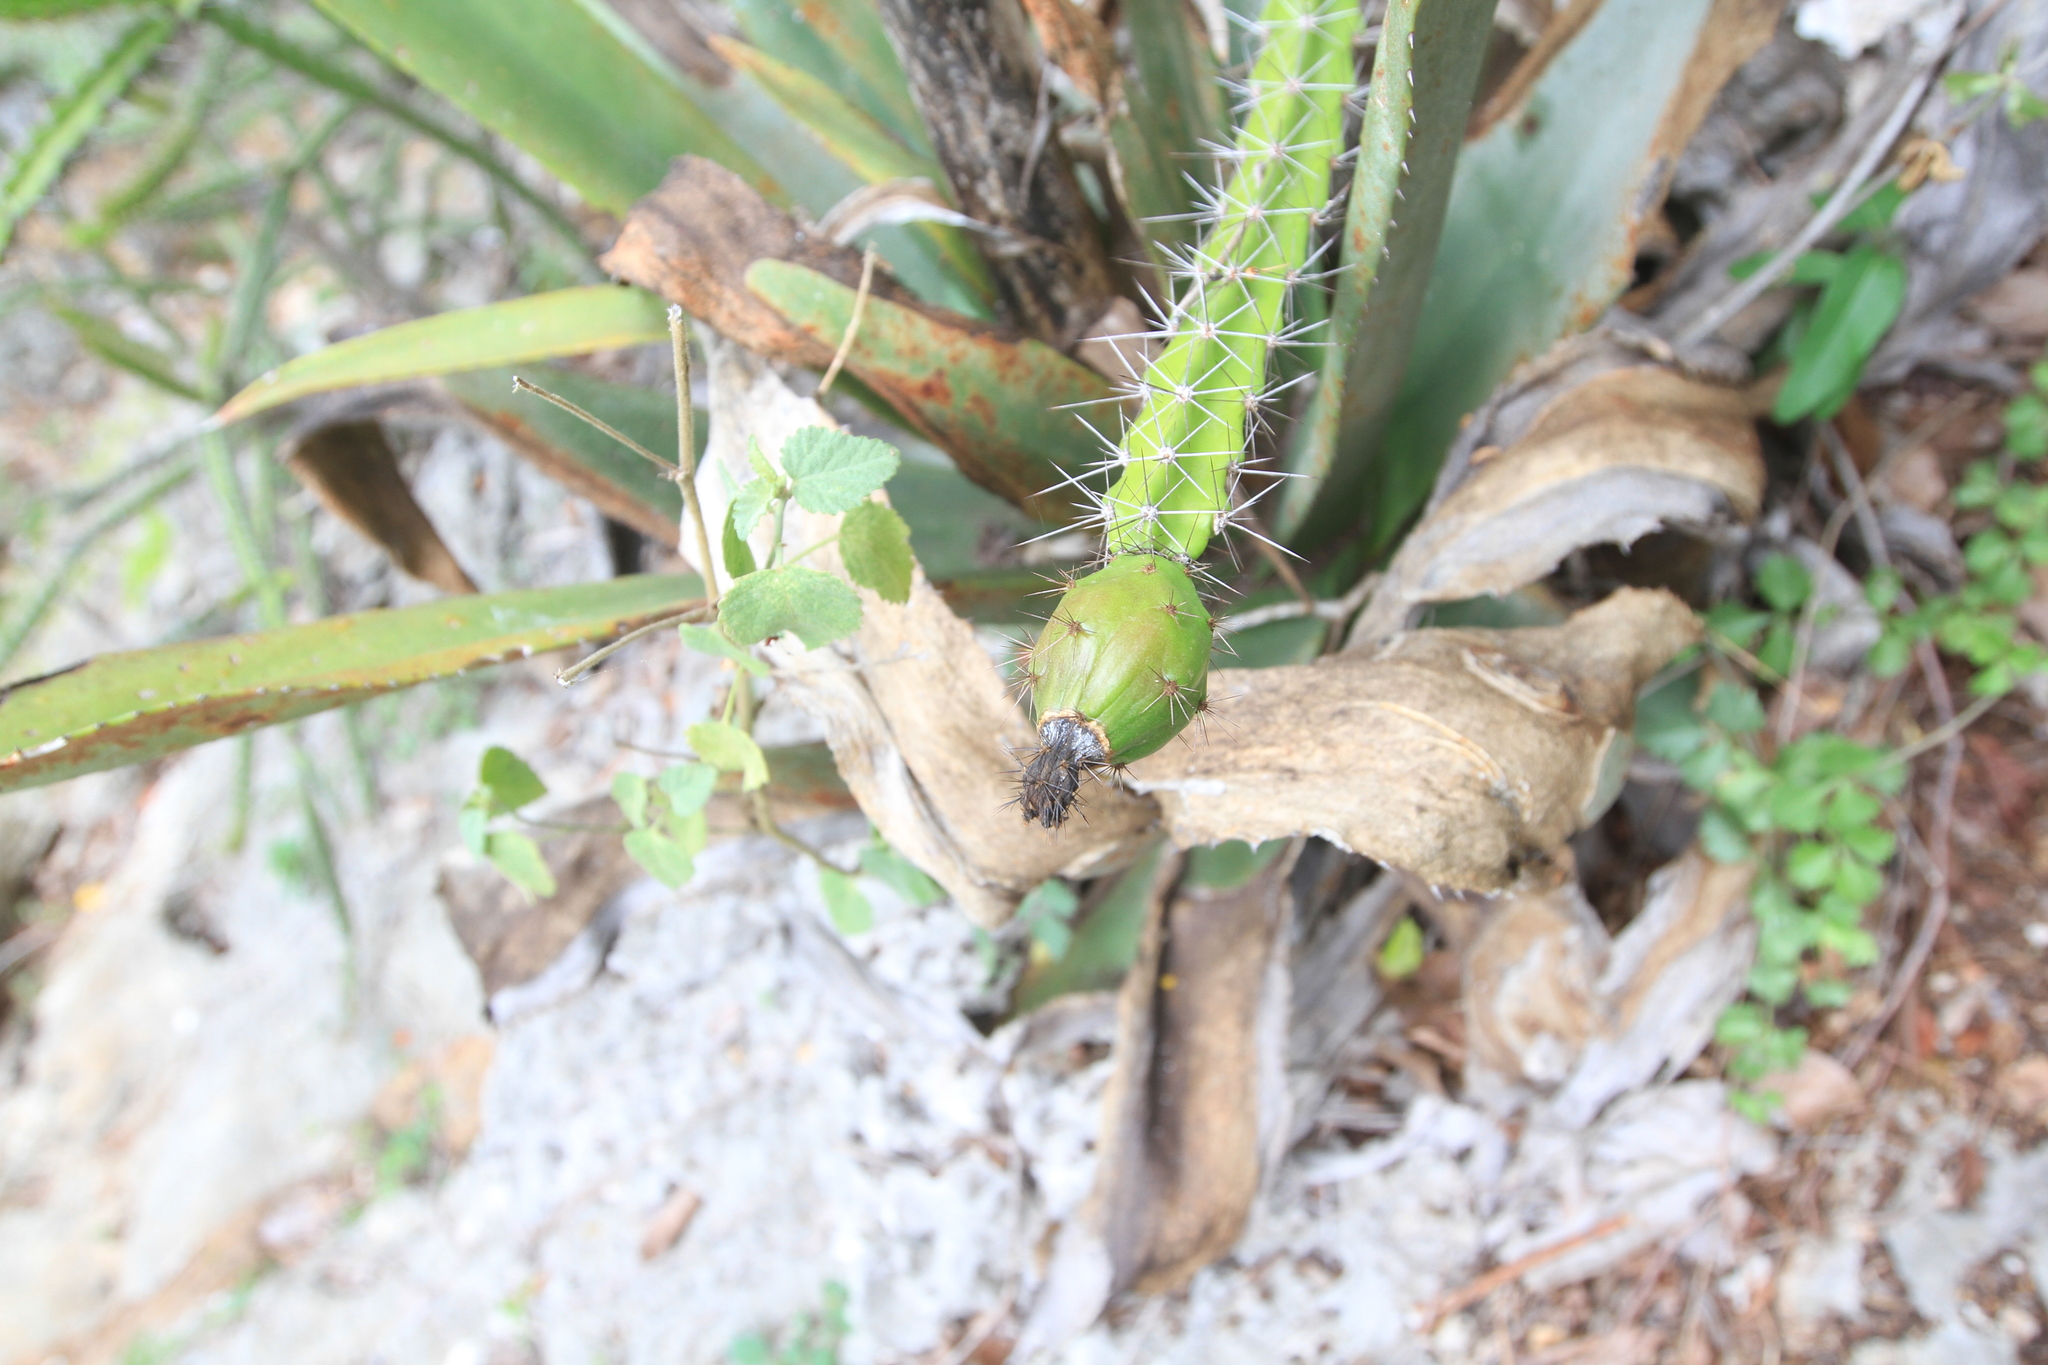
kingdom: Plantae
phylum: Tracheophyta
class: Magnoliopsida
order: Caryophyllales
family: Cactaceae
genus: Leptocereus
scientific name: Leptocereus weingartianus
